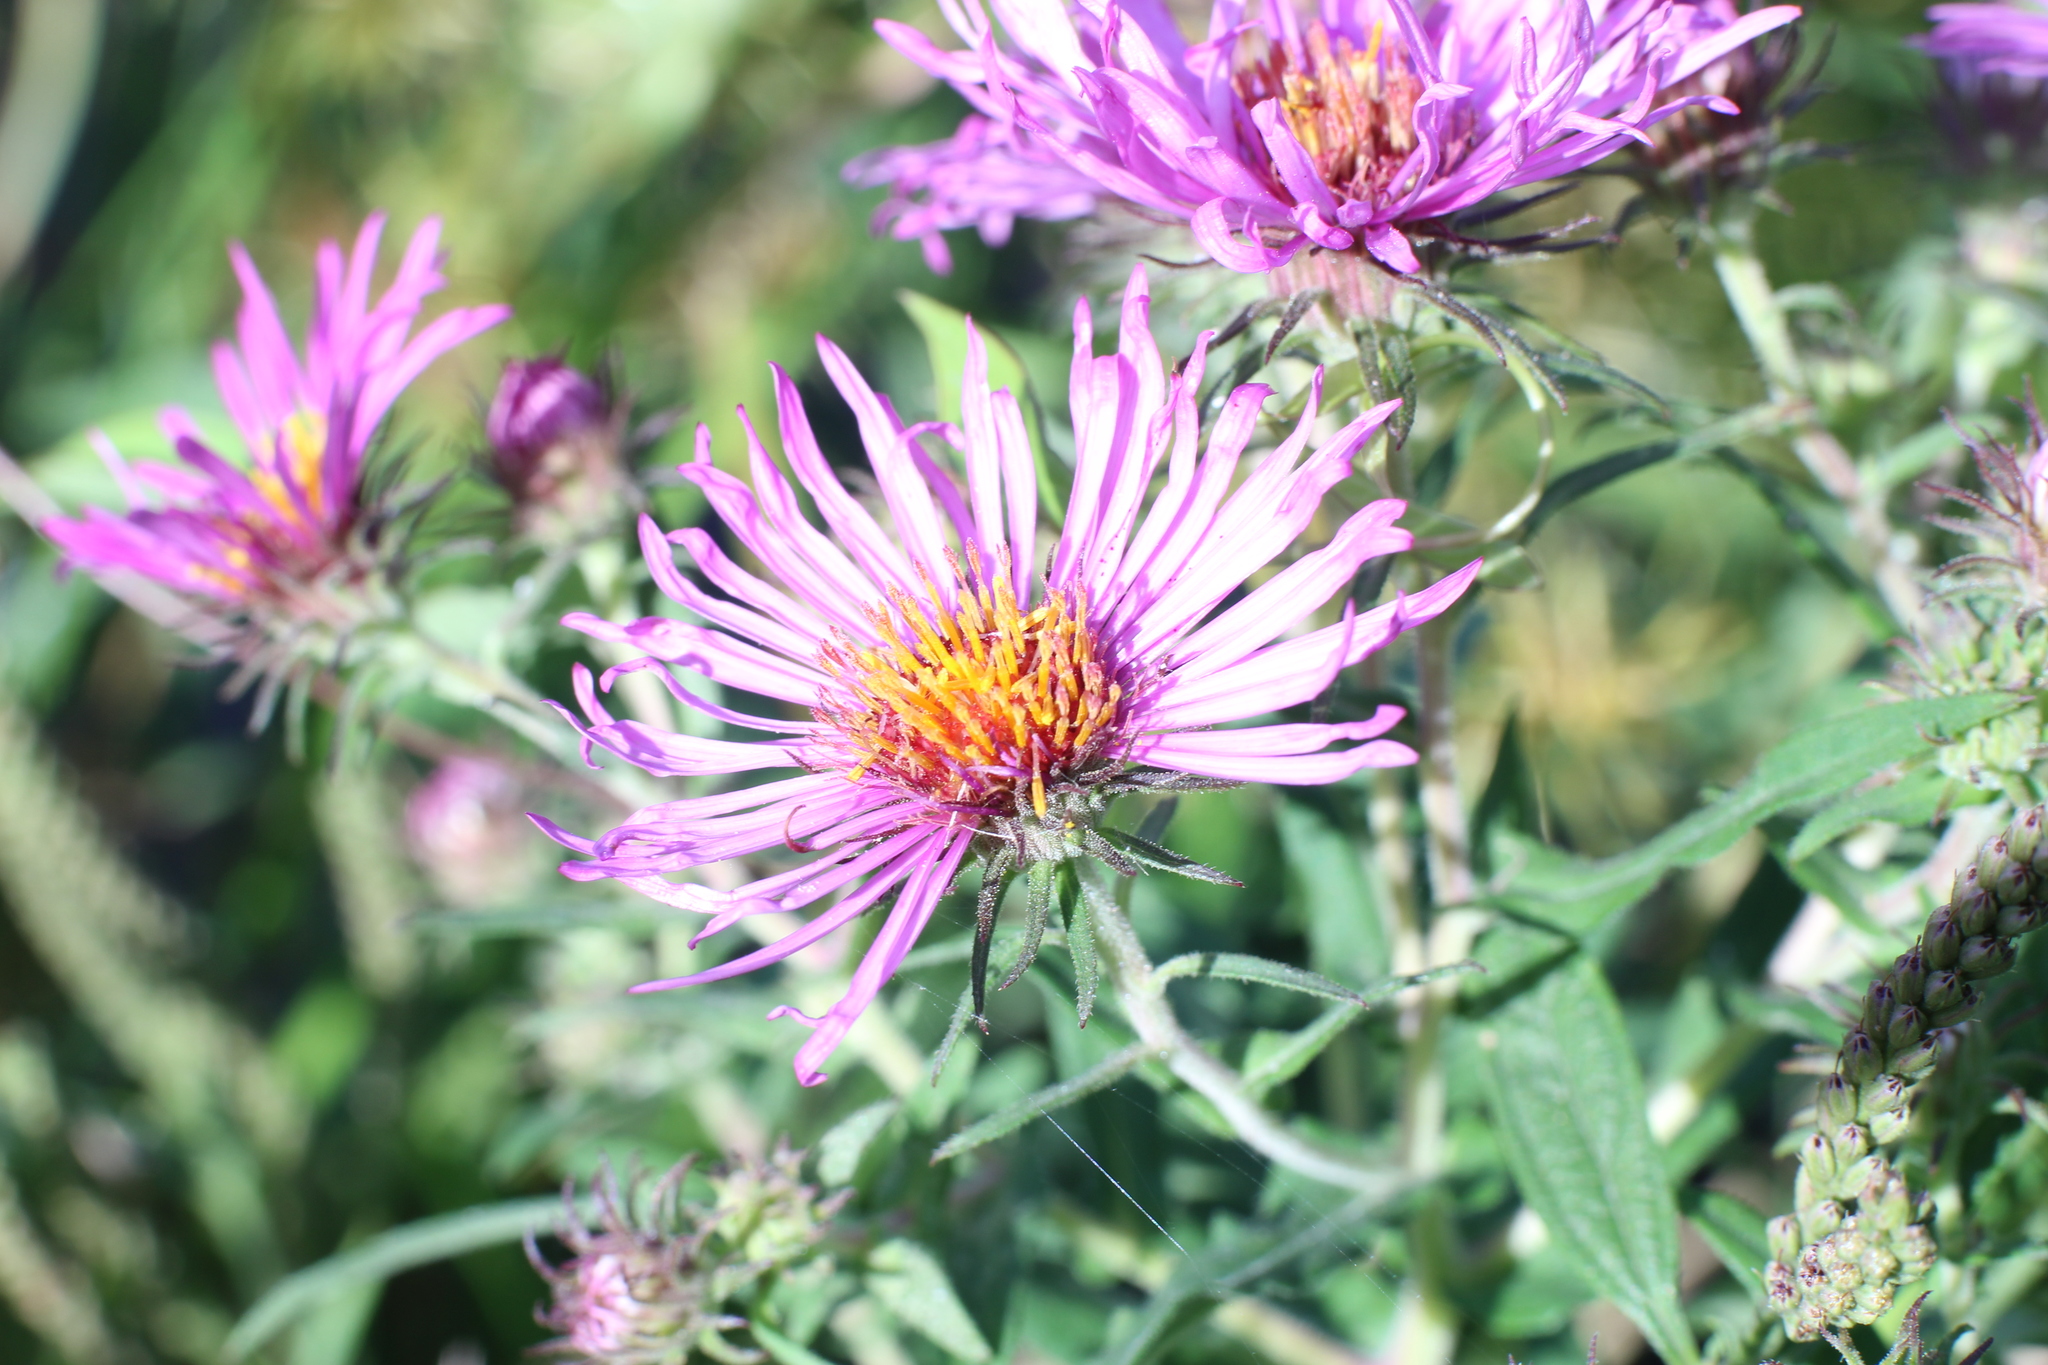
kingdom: Plantae
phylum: Tracheophyta
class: Magnoliopsida
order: Asterales
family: Asteraceae
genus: Symphyotrichum
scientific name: Symphyotrichum novae-angliae
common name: Michaelmas daisy
